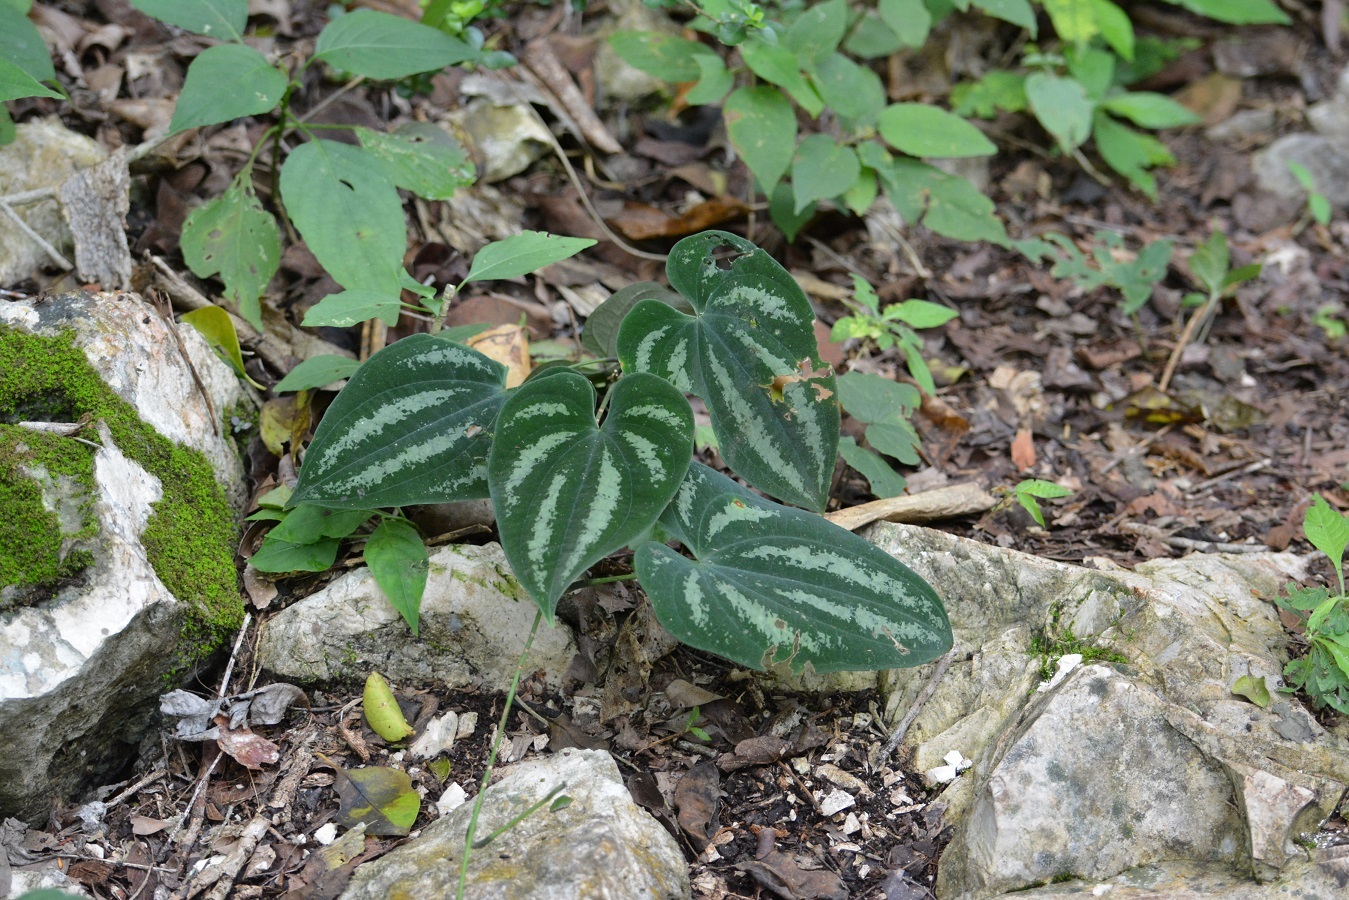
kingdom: Plantae
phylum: Tracheophyta
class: Liliopsida
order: Dioscoreales
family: Dioscoreaceae
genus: Dioscorea
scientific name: Dioscorea cyanisticta
